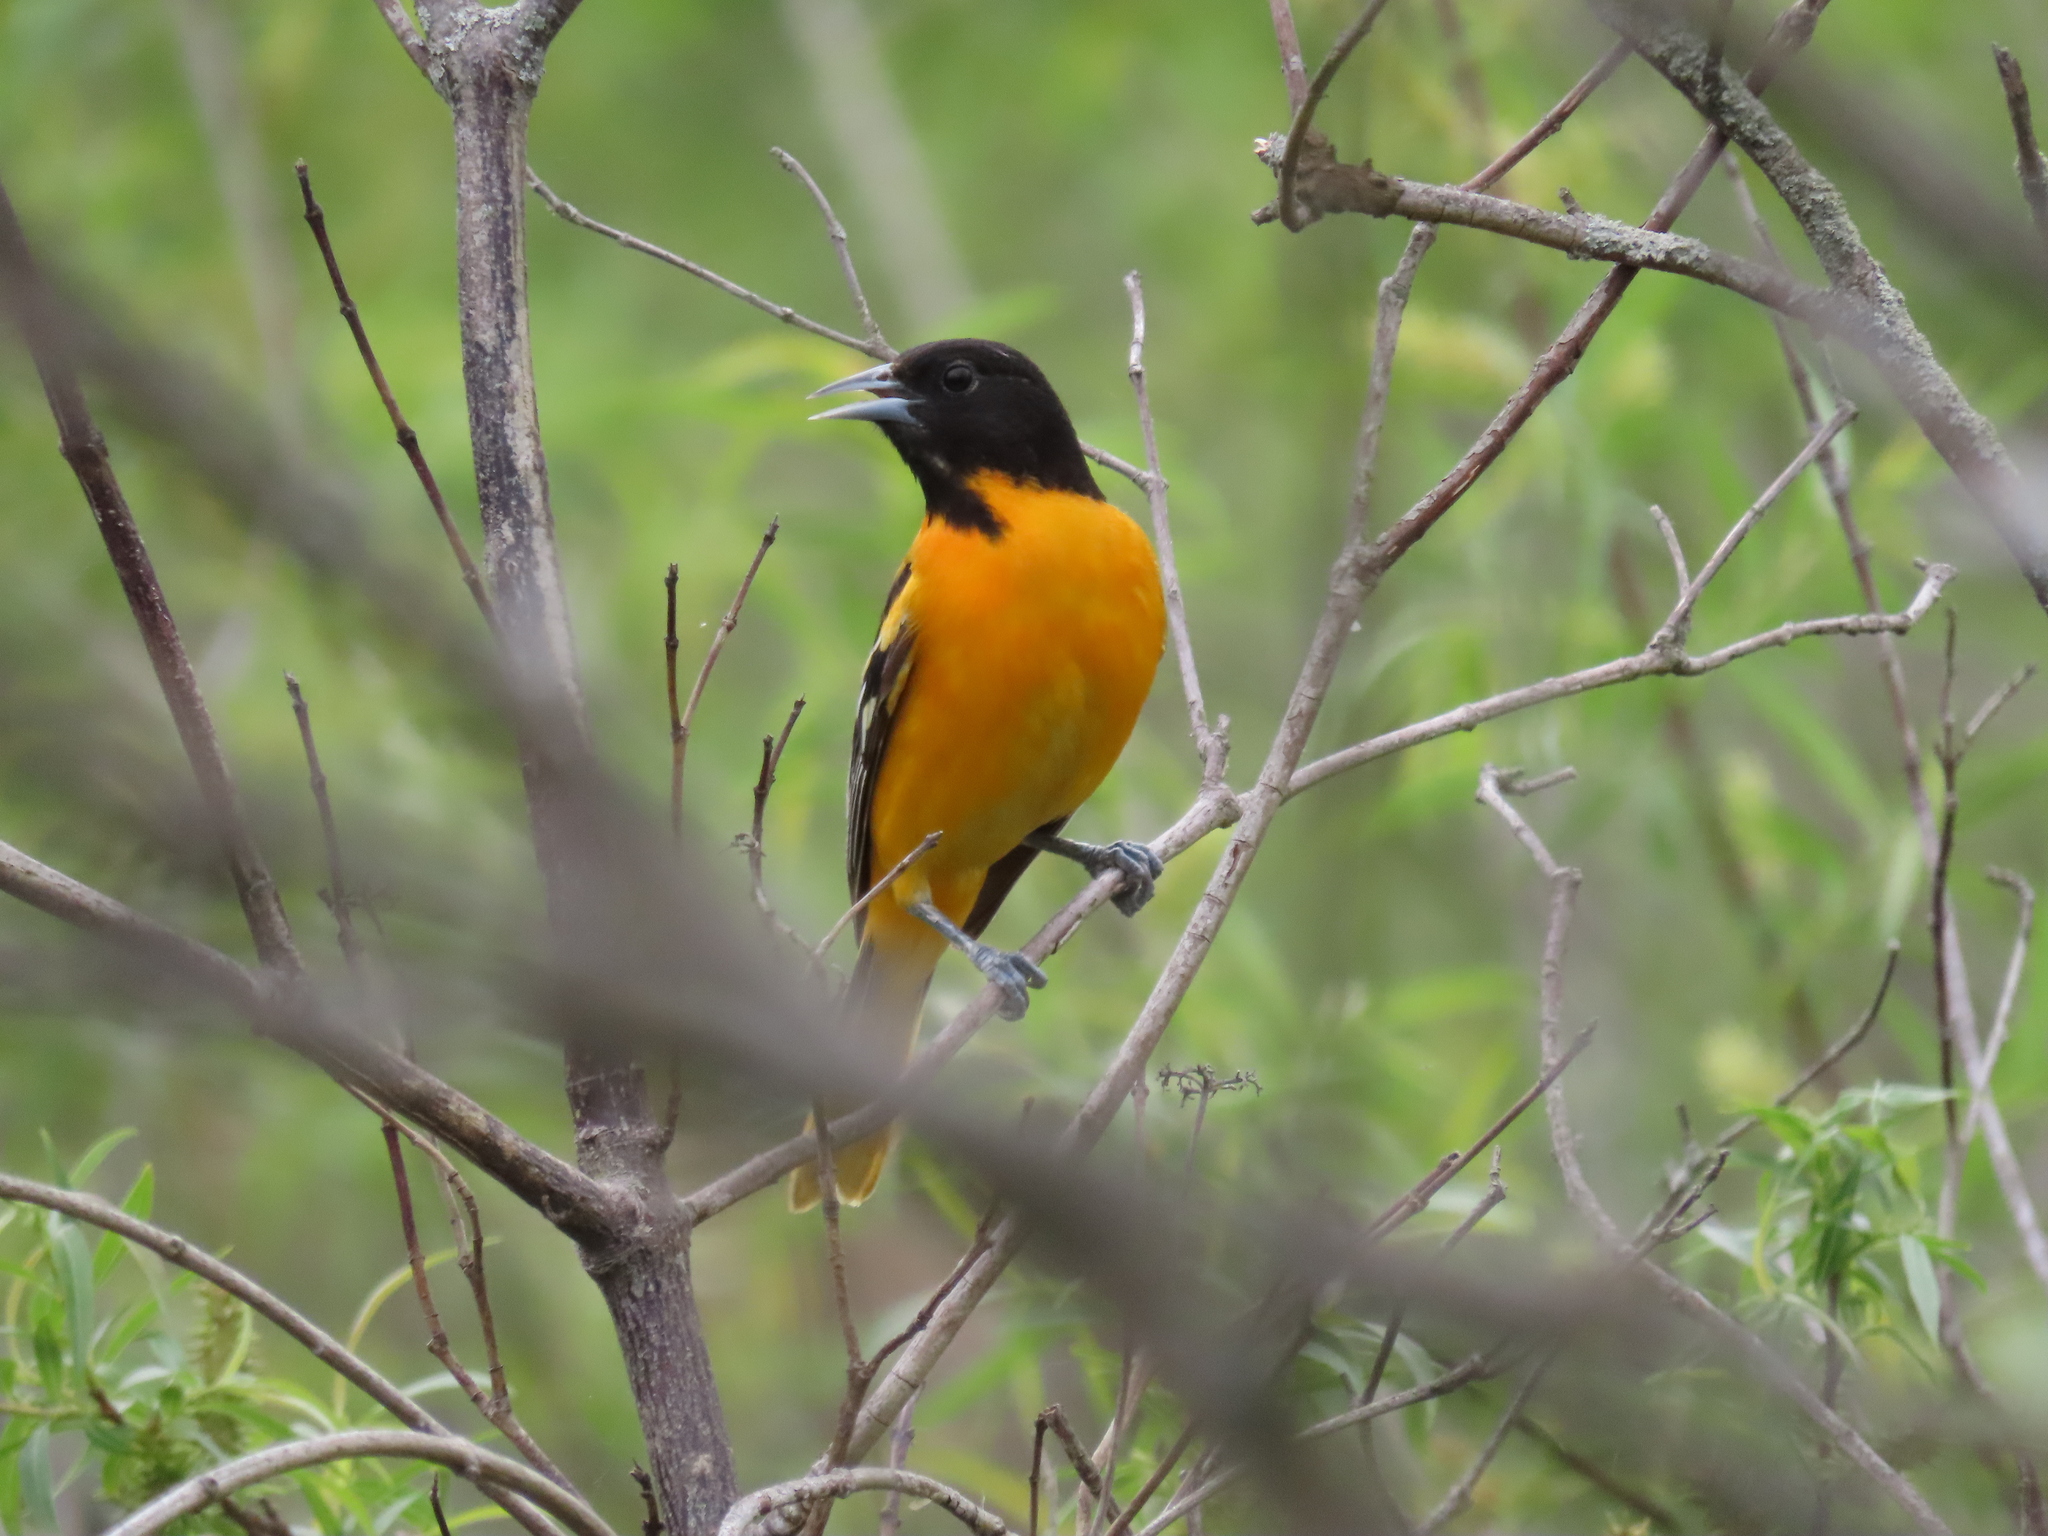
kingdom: Animalia
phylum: Chordata
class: Aves
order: Passeriformes
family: Icteridae
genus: Icterus
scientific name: Icterus galbula
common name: Baltimore oriole
